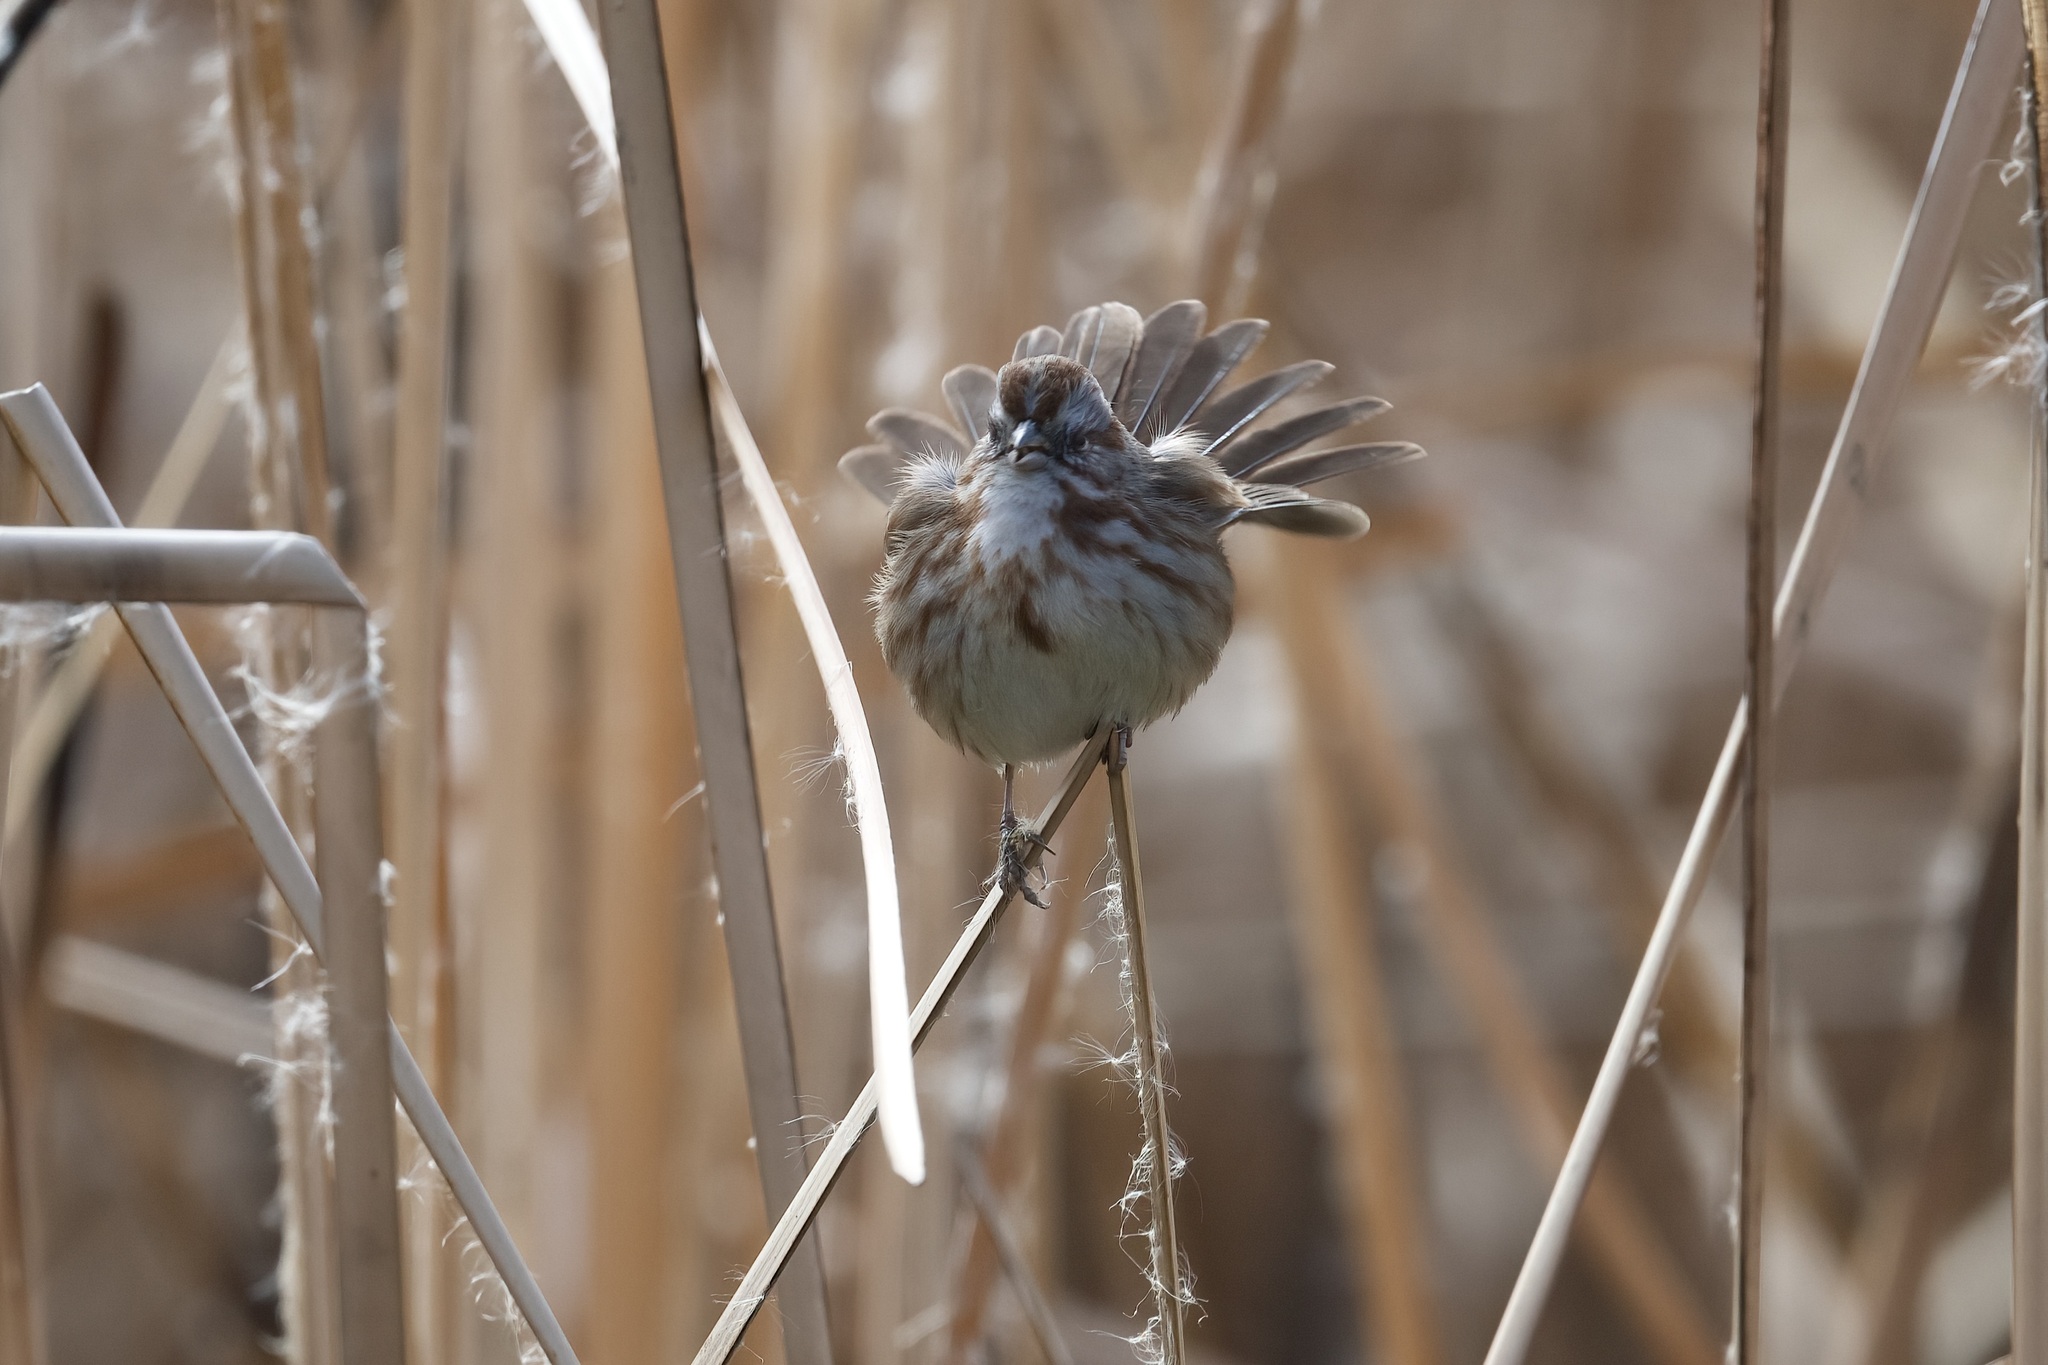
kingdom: Animalia
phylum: Chordata
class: Aves
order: Passeriformes
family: Passerellidae
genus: Melospiza
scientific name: Melospiza melodia
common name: Song sparrow
